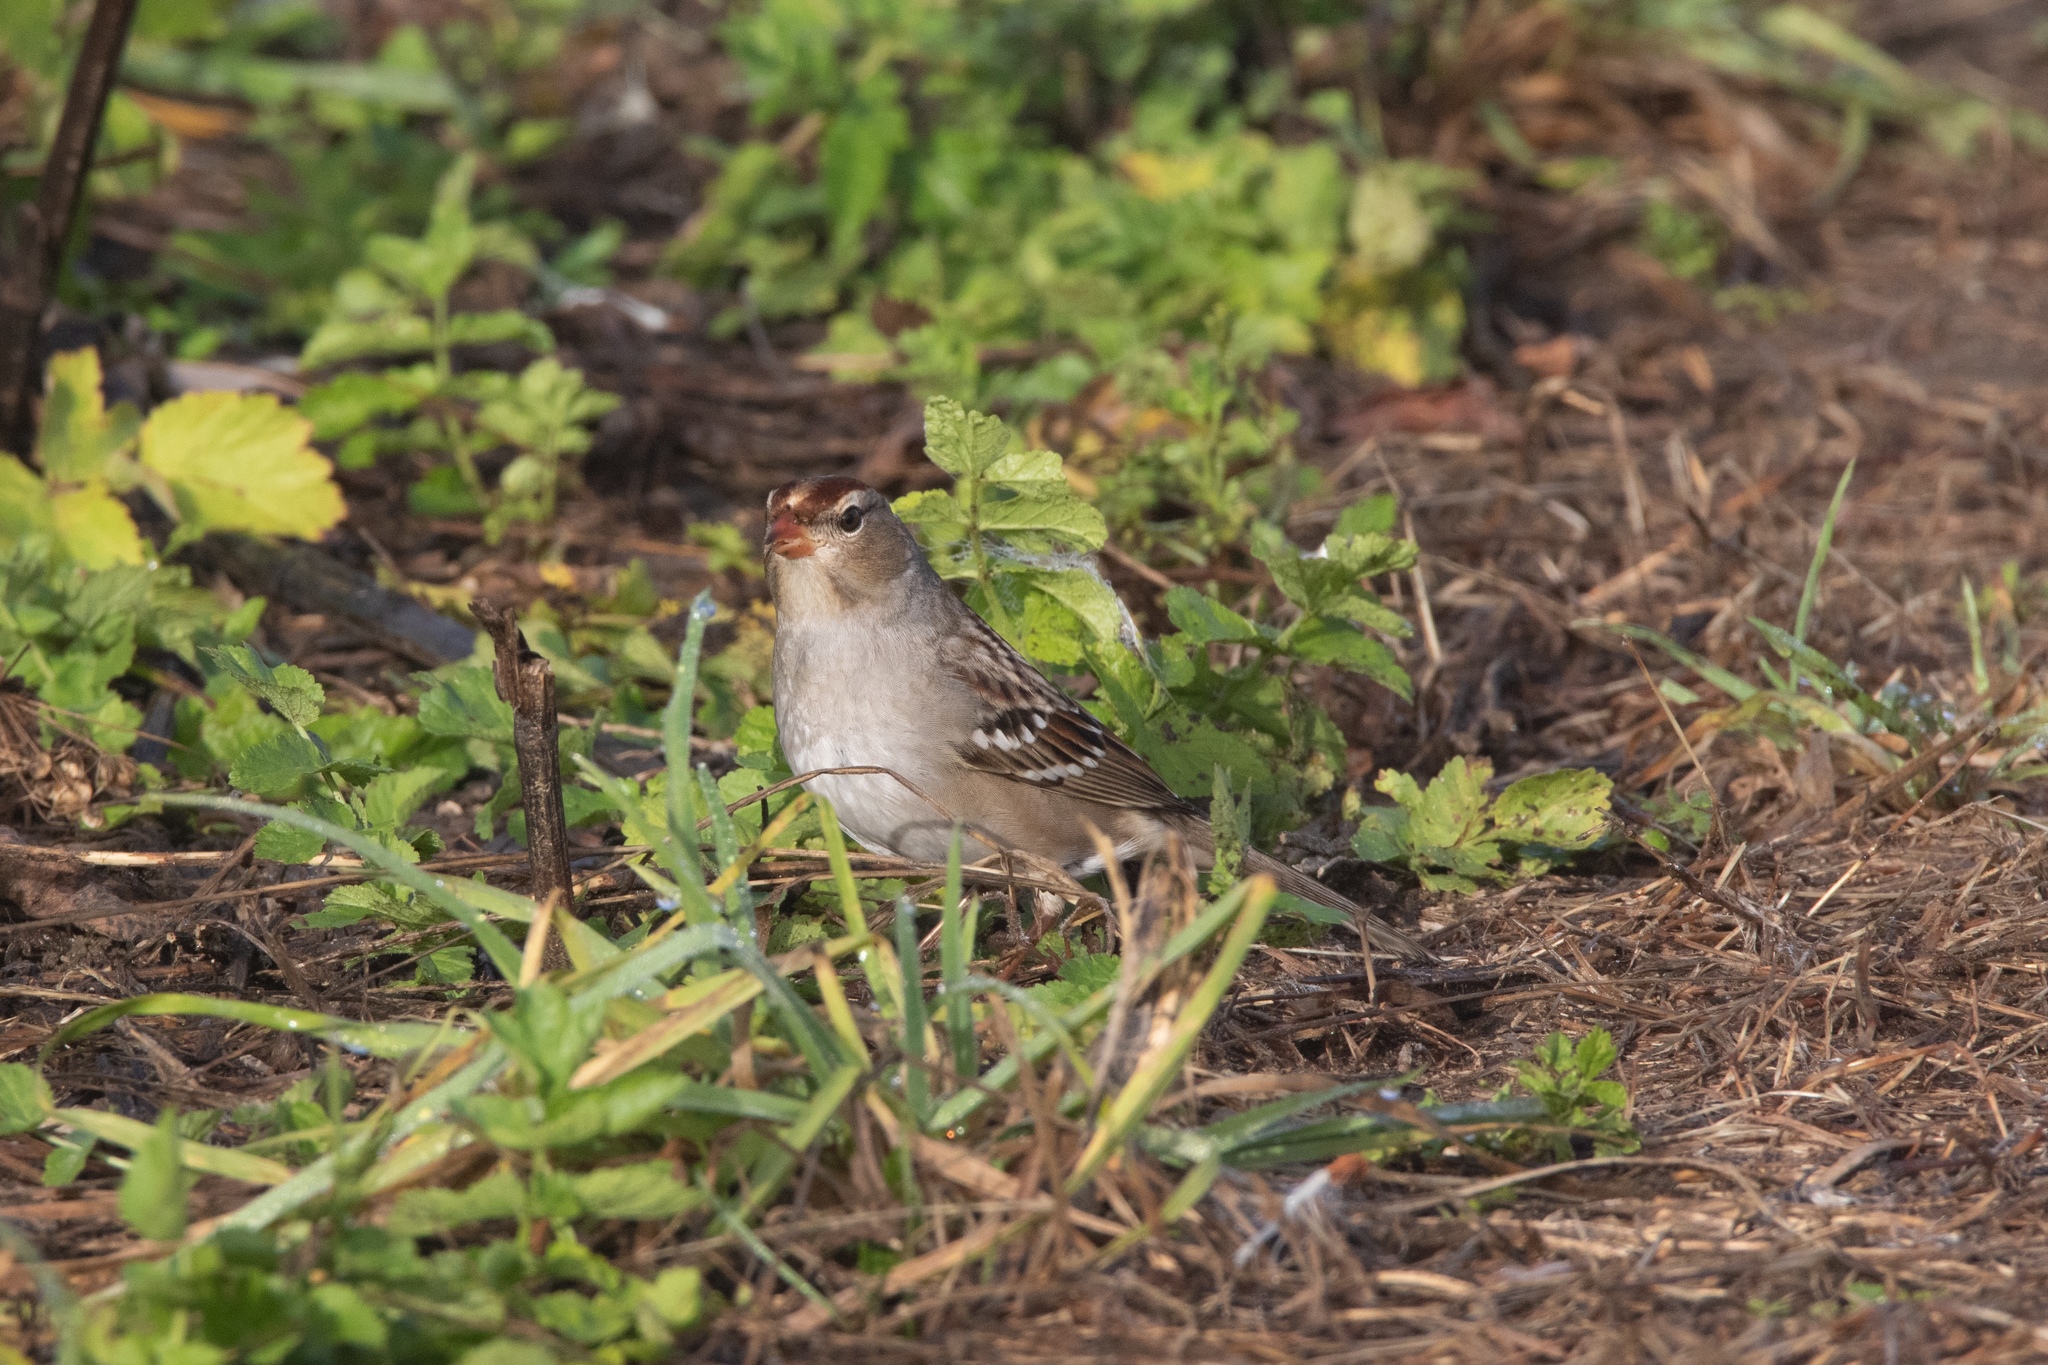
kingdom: Animalia
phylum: Chordata
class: Aves
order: Passeriformes
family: Passerellidae
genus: Zonotrichia
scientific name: Zonotrichia leucophrys
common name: White-crowned sparrow
